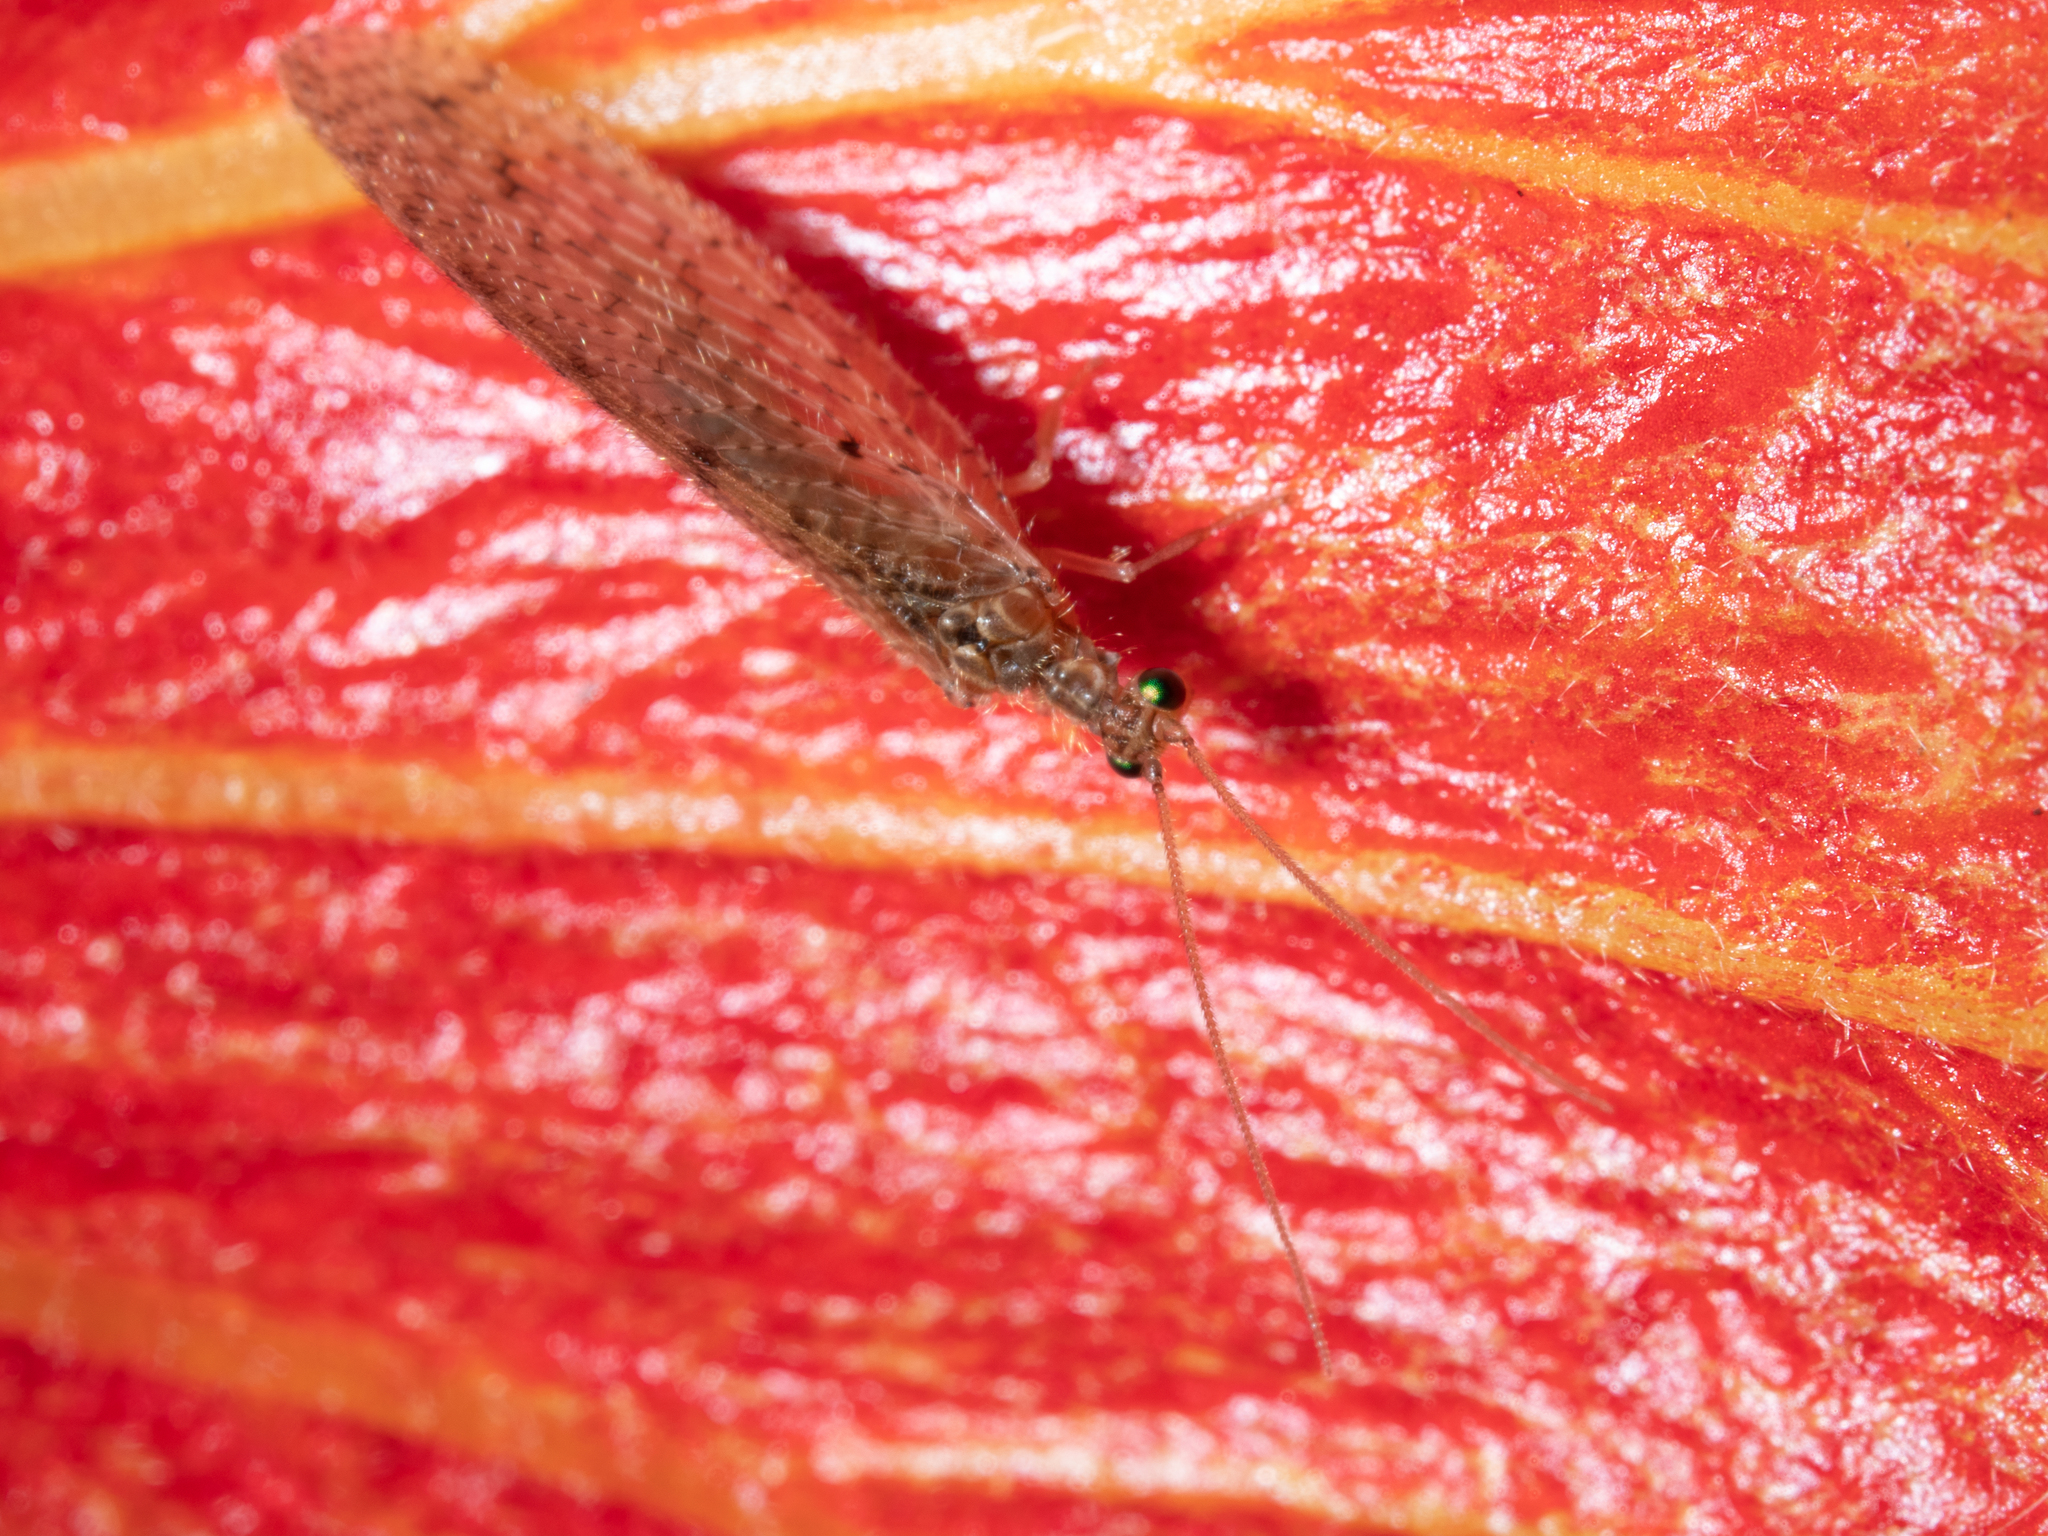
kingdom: Animalia
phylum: Arthropoda
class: Insecta
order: Neuroptera
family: Hemerobiidae
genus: Micromus
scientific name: Micromus tasmaniae
